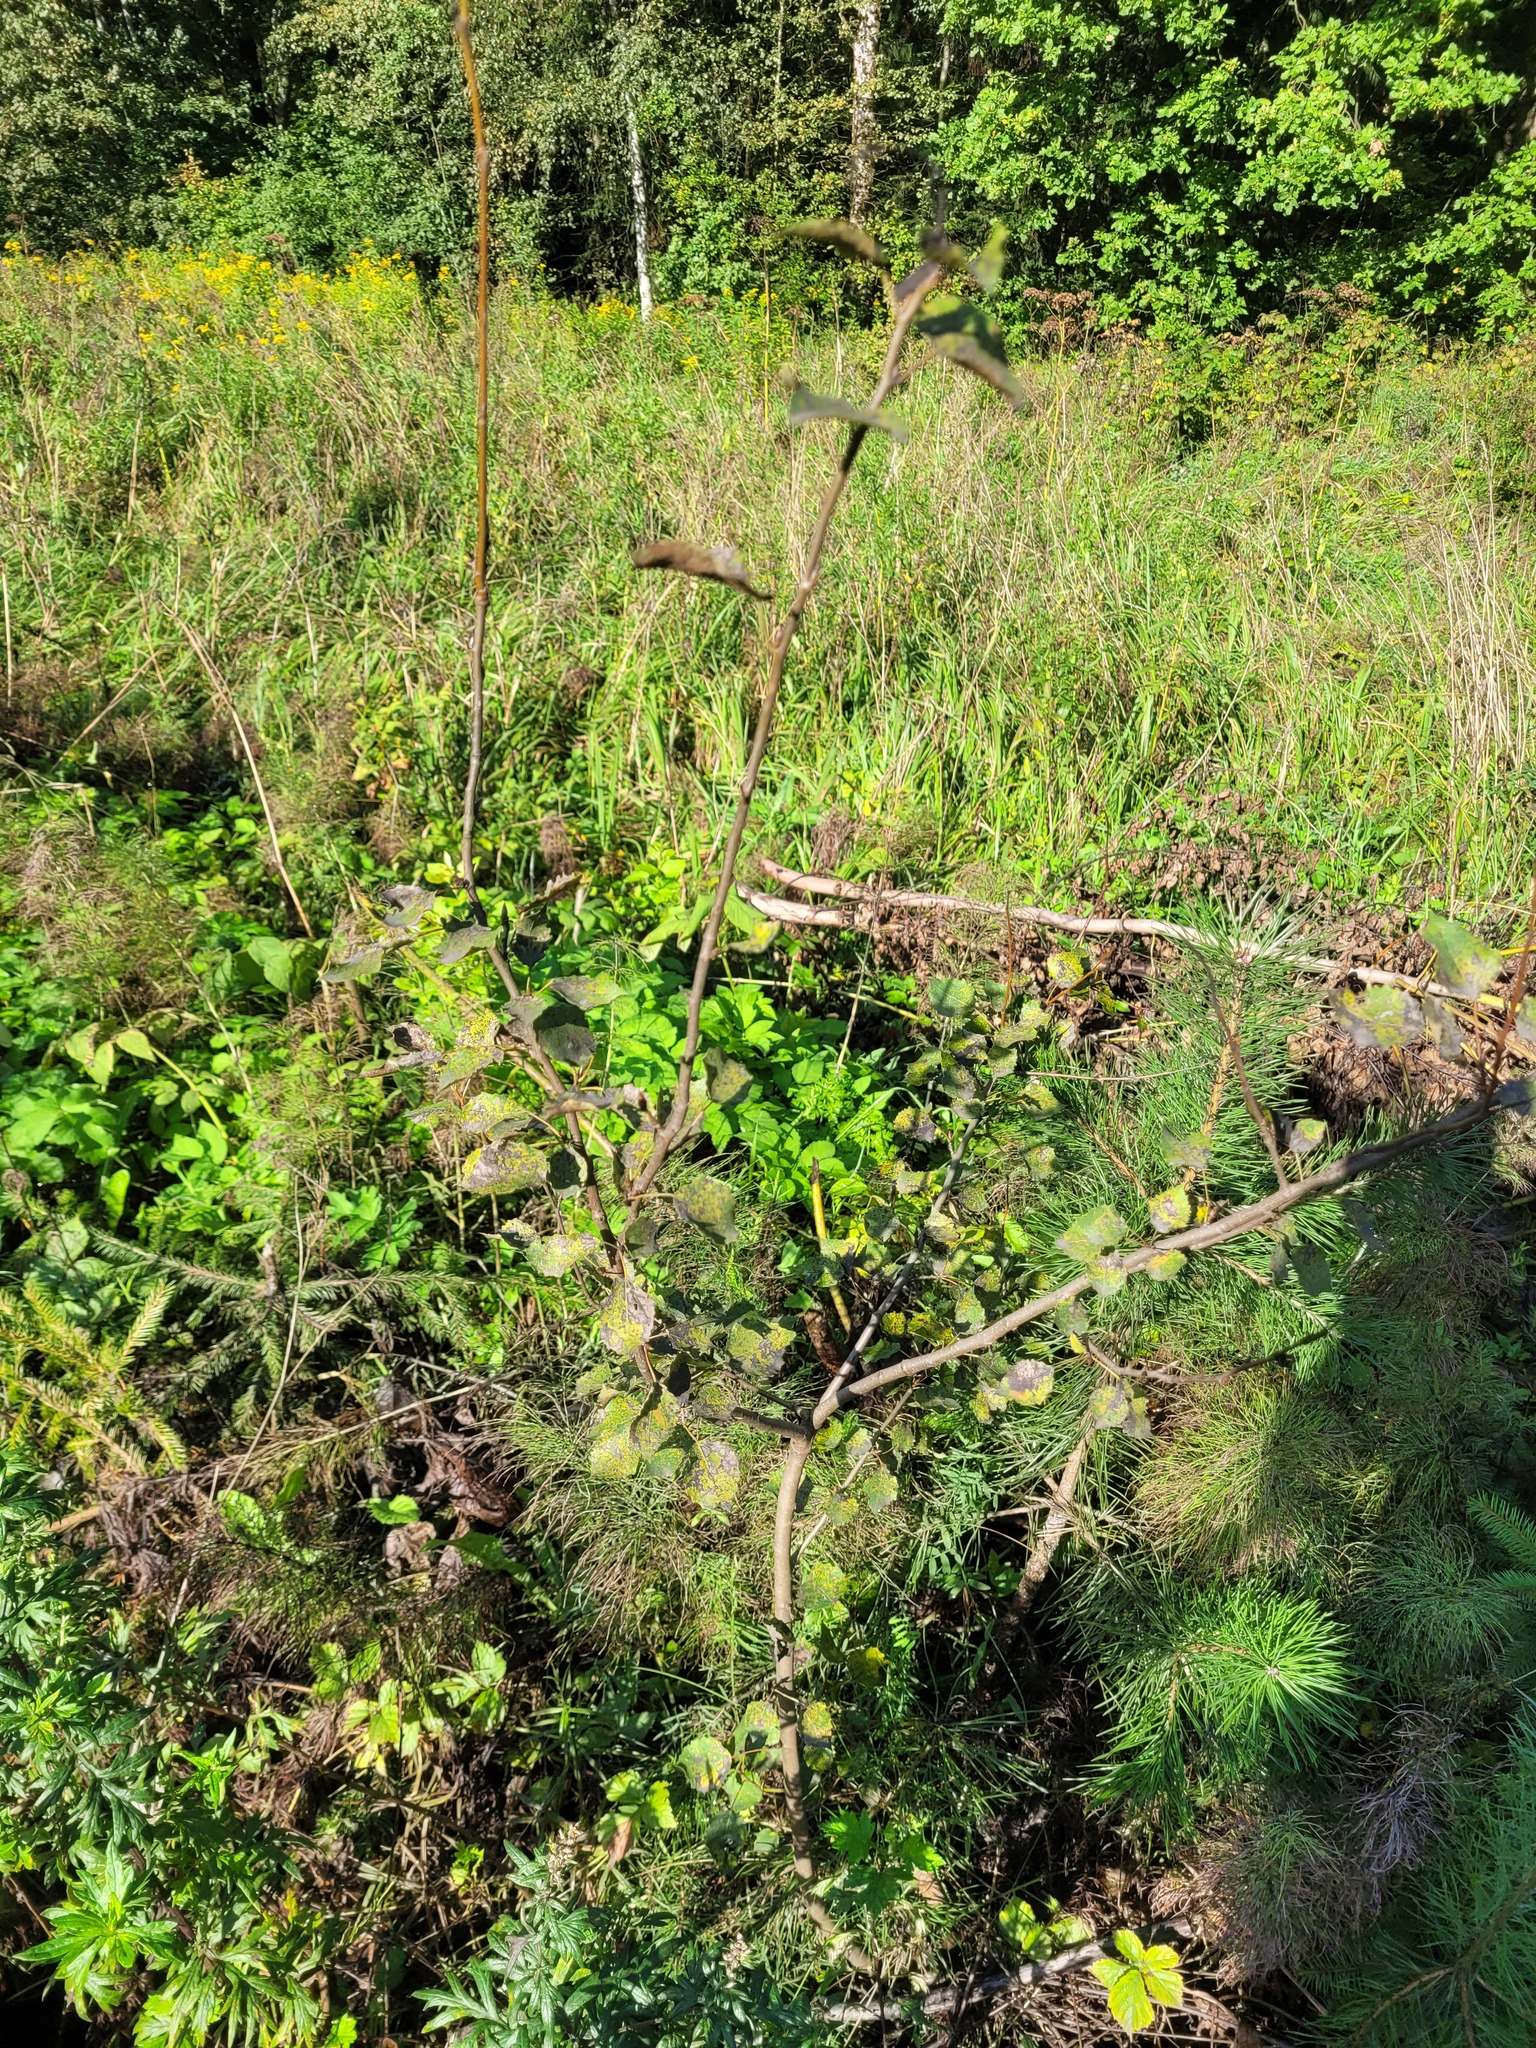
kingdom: Plantae
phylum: Tracheophyta
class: Magnoliopsida
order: Malpighiales
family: Salicaceae
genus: Populus
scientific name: Populus tremula
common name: European aspen
